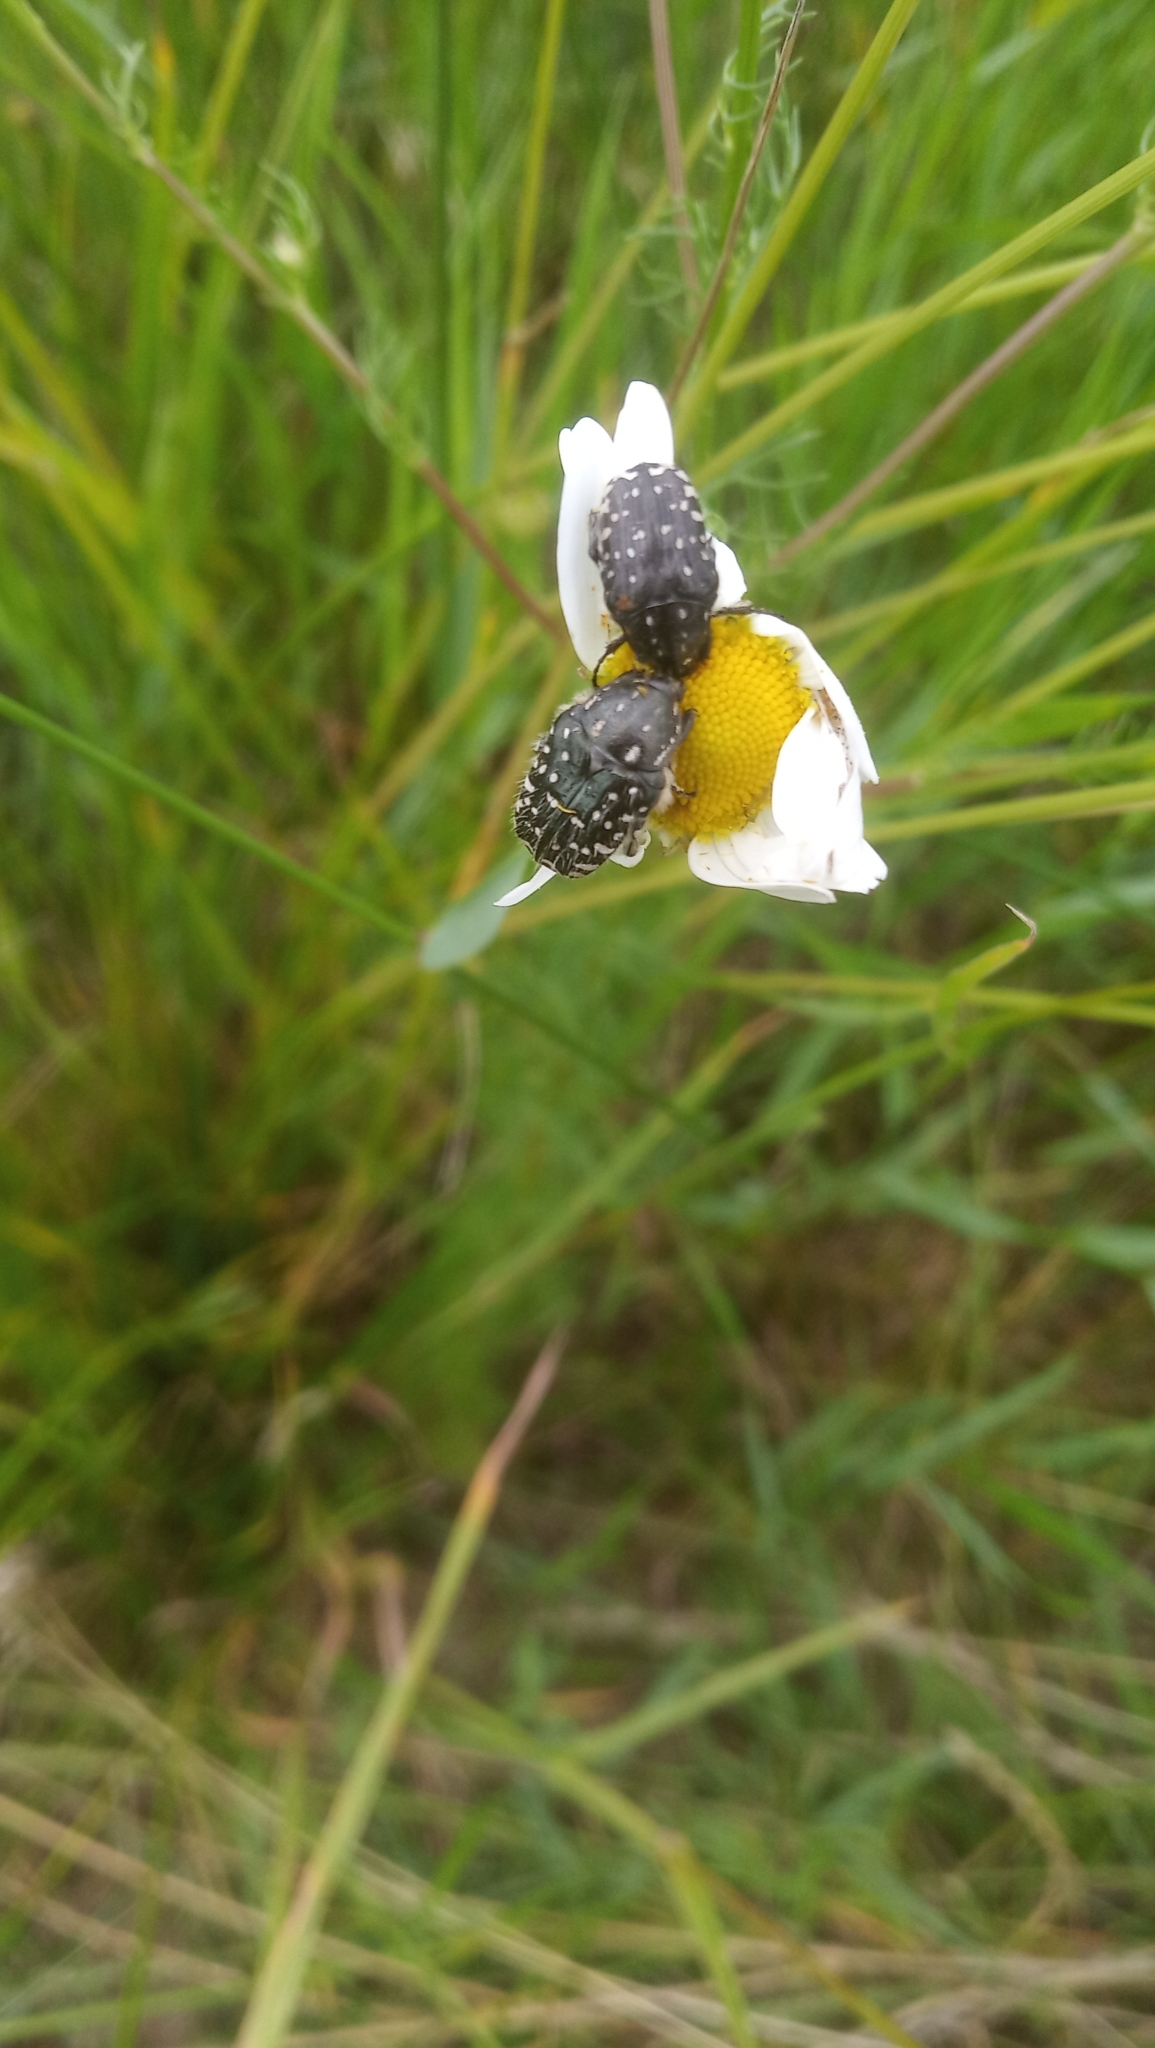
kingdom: Animalia
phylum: Arthropoda
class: Insecta
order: Coleoptera
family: Scarabaeidae
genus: Oxythyrea
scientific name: Oxythyrea funesta
